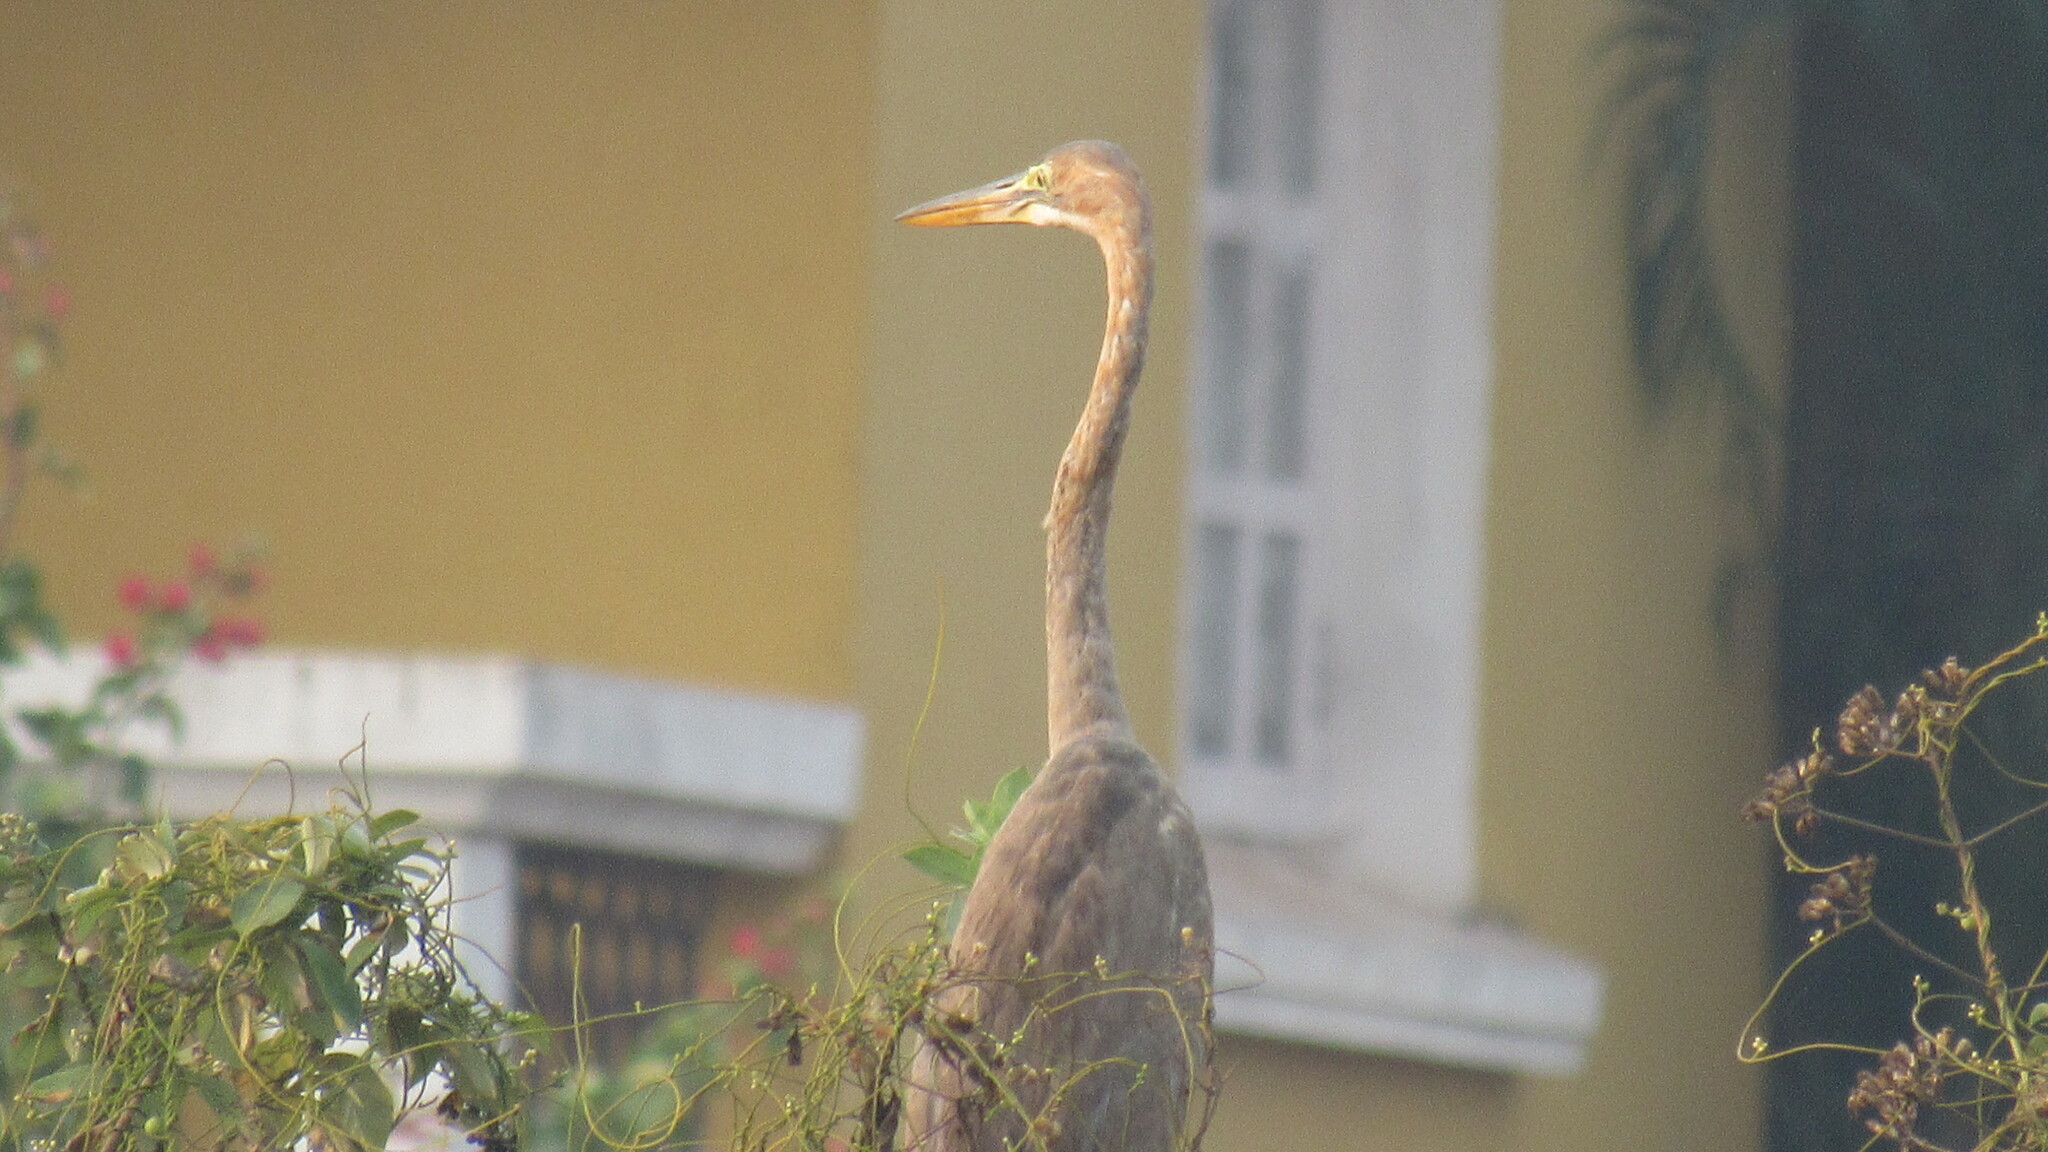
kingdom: Animalia
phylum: Chordata
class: Aves
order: Pelecaniformes
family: Ardeidae
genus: Ardea
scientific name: Ardea purpurea
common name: Purple heron
